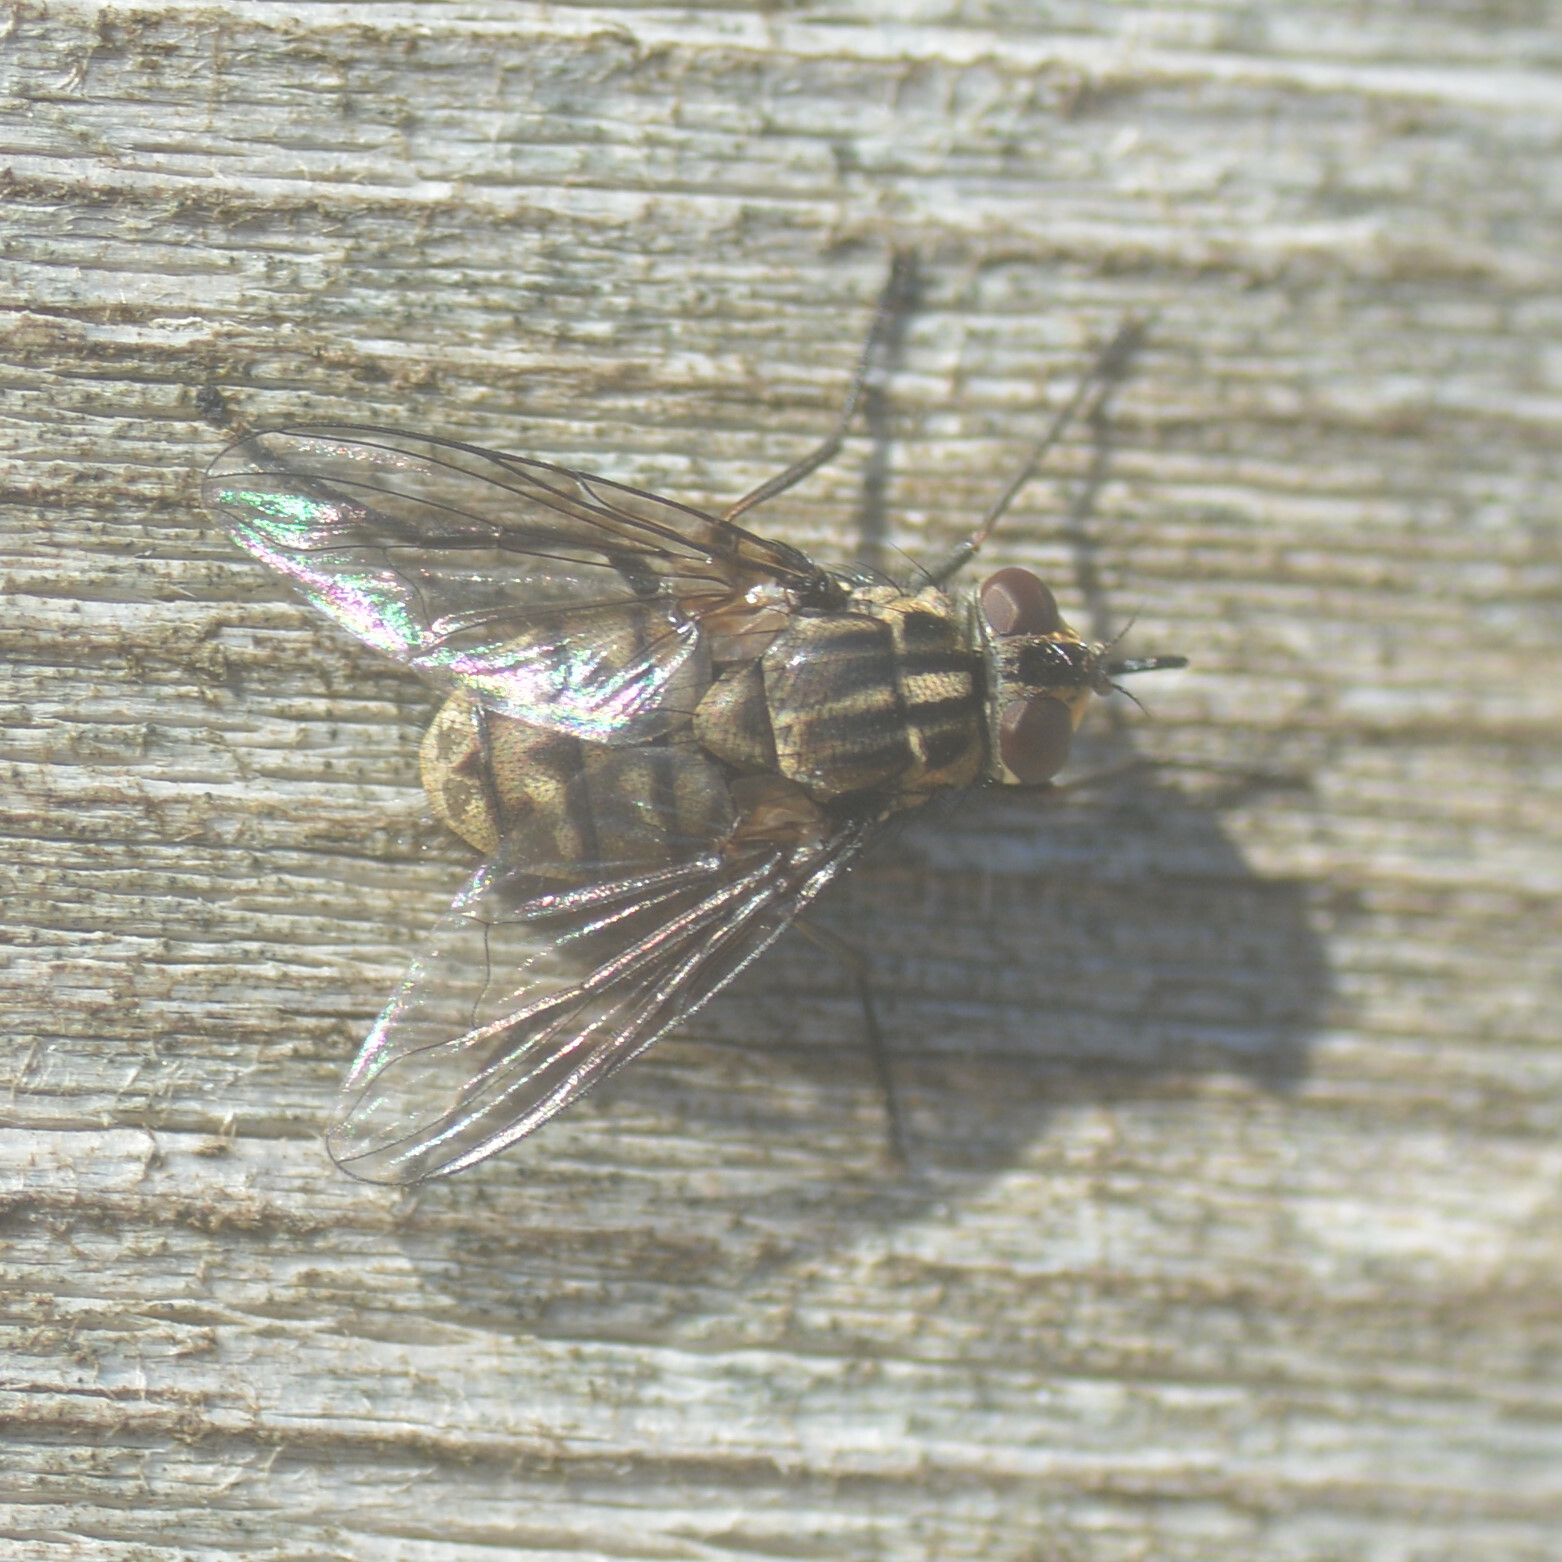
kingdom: Animalia
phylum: Arthropoda
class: Insecta
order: Diptera
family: Muscidae
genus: Stomoxys
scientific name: Stomoxys calcitrans
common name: Stable fly
